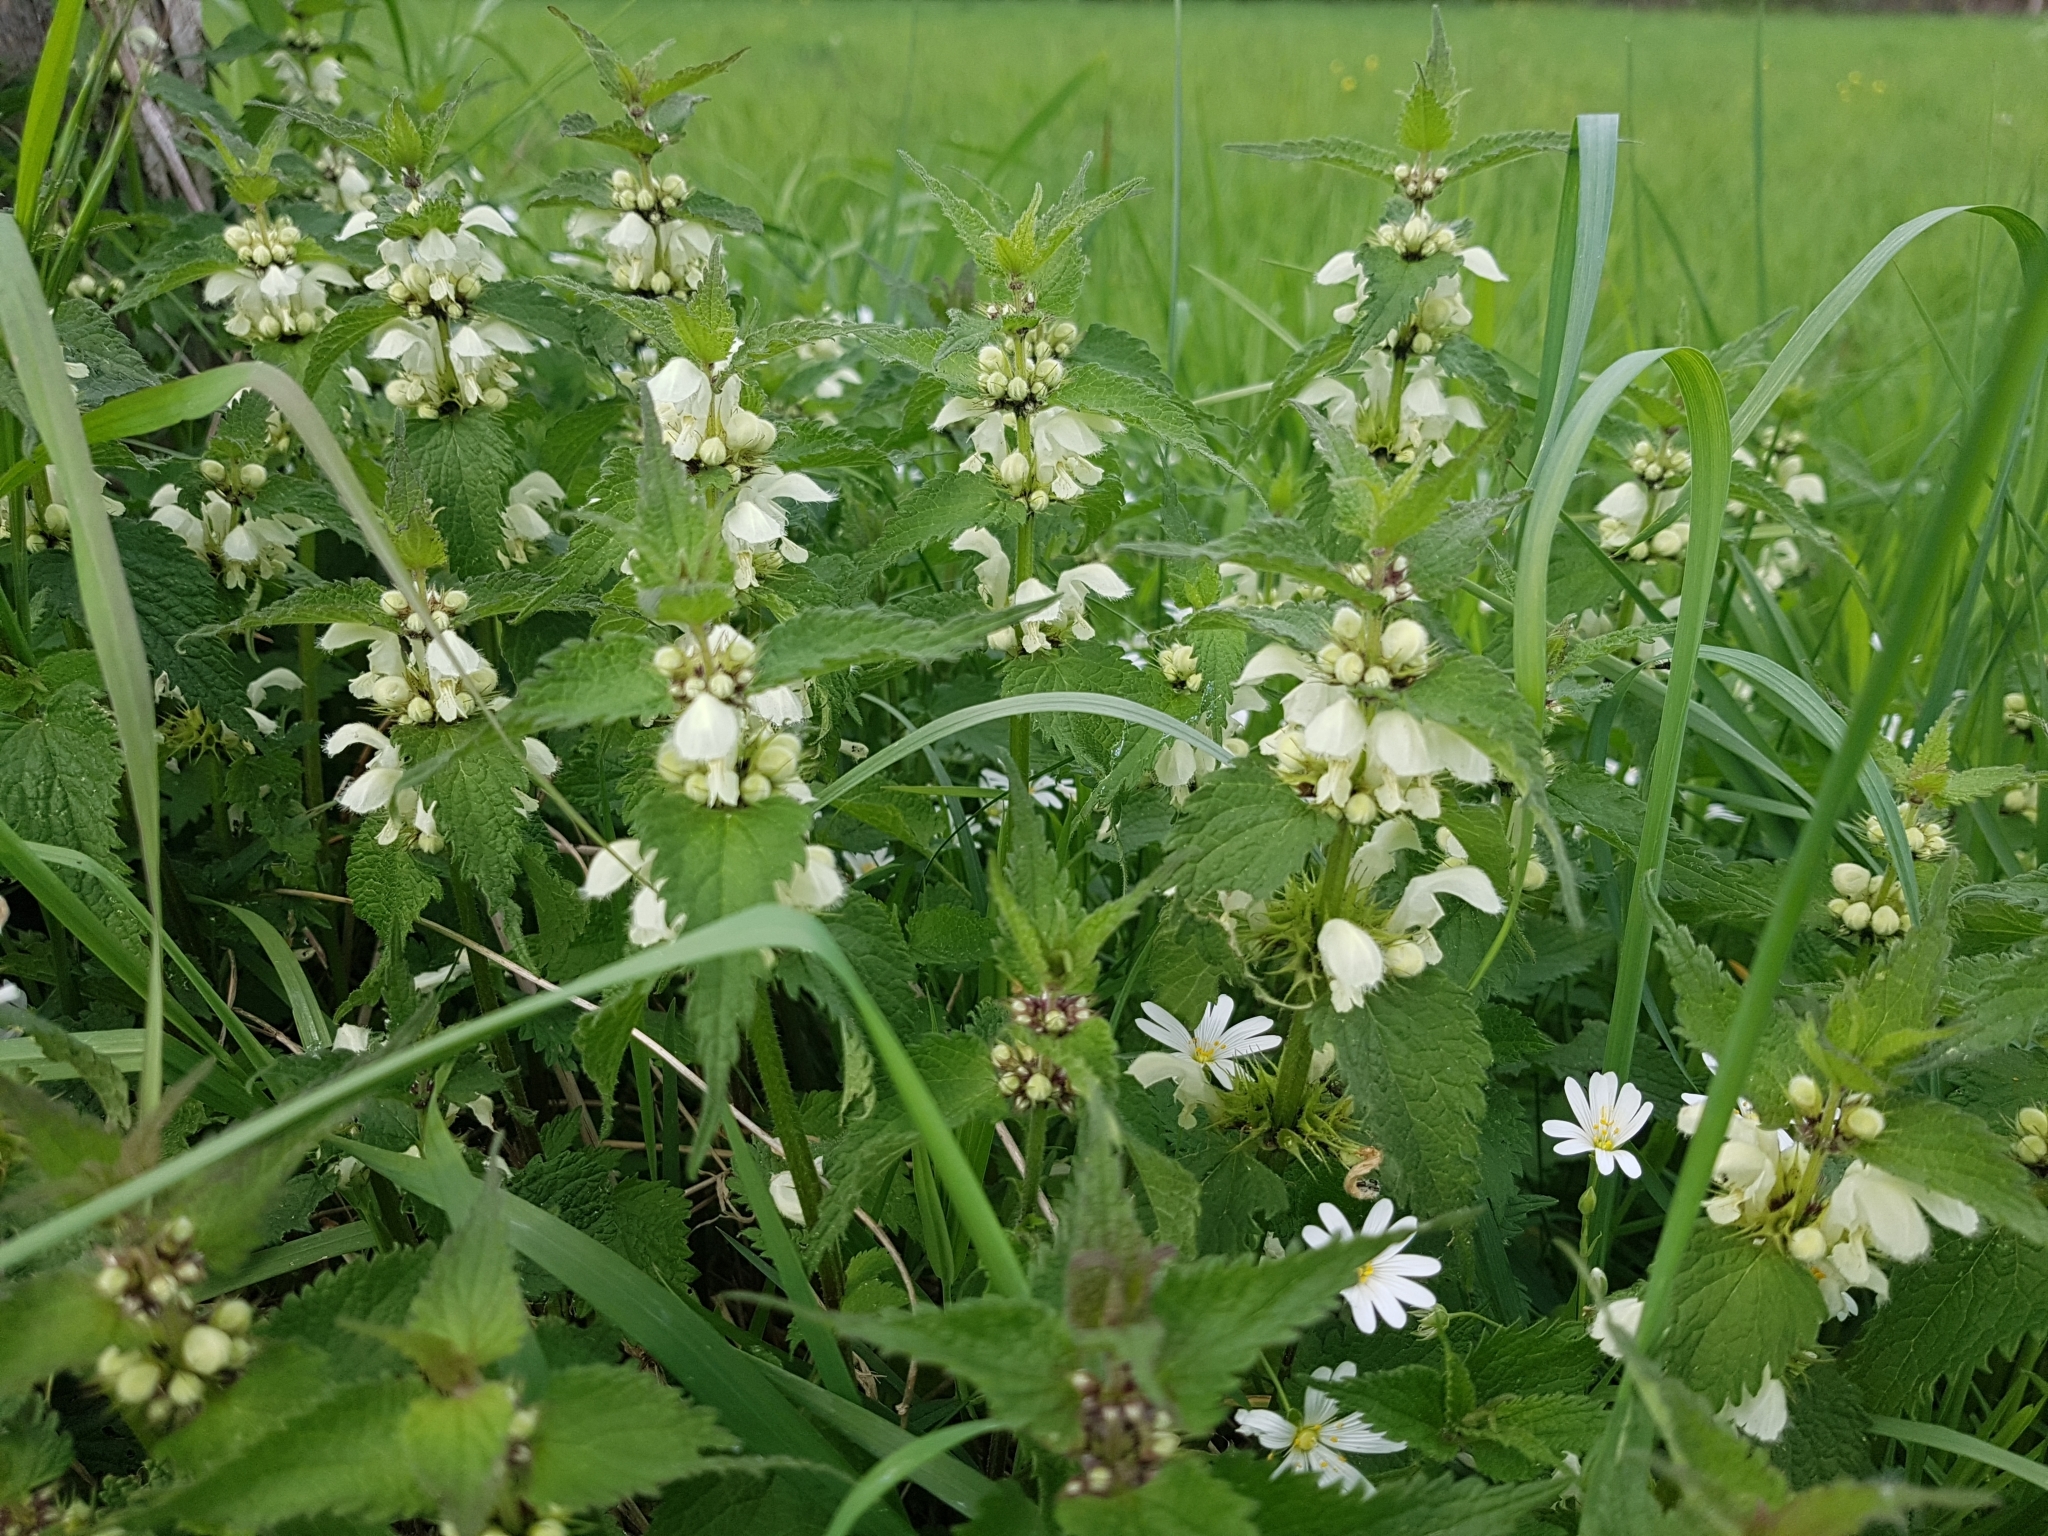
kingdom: Plantae
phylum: Tracheophyta
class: Magnoliopsida
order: Lamiales
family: Lamiaceae
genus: Lamium
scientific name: Lamium album
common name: White dead-nettle
